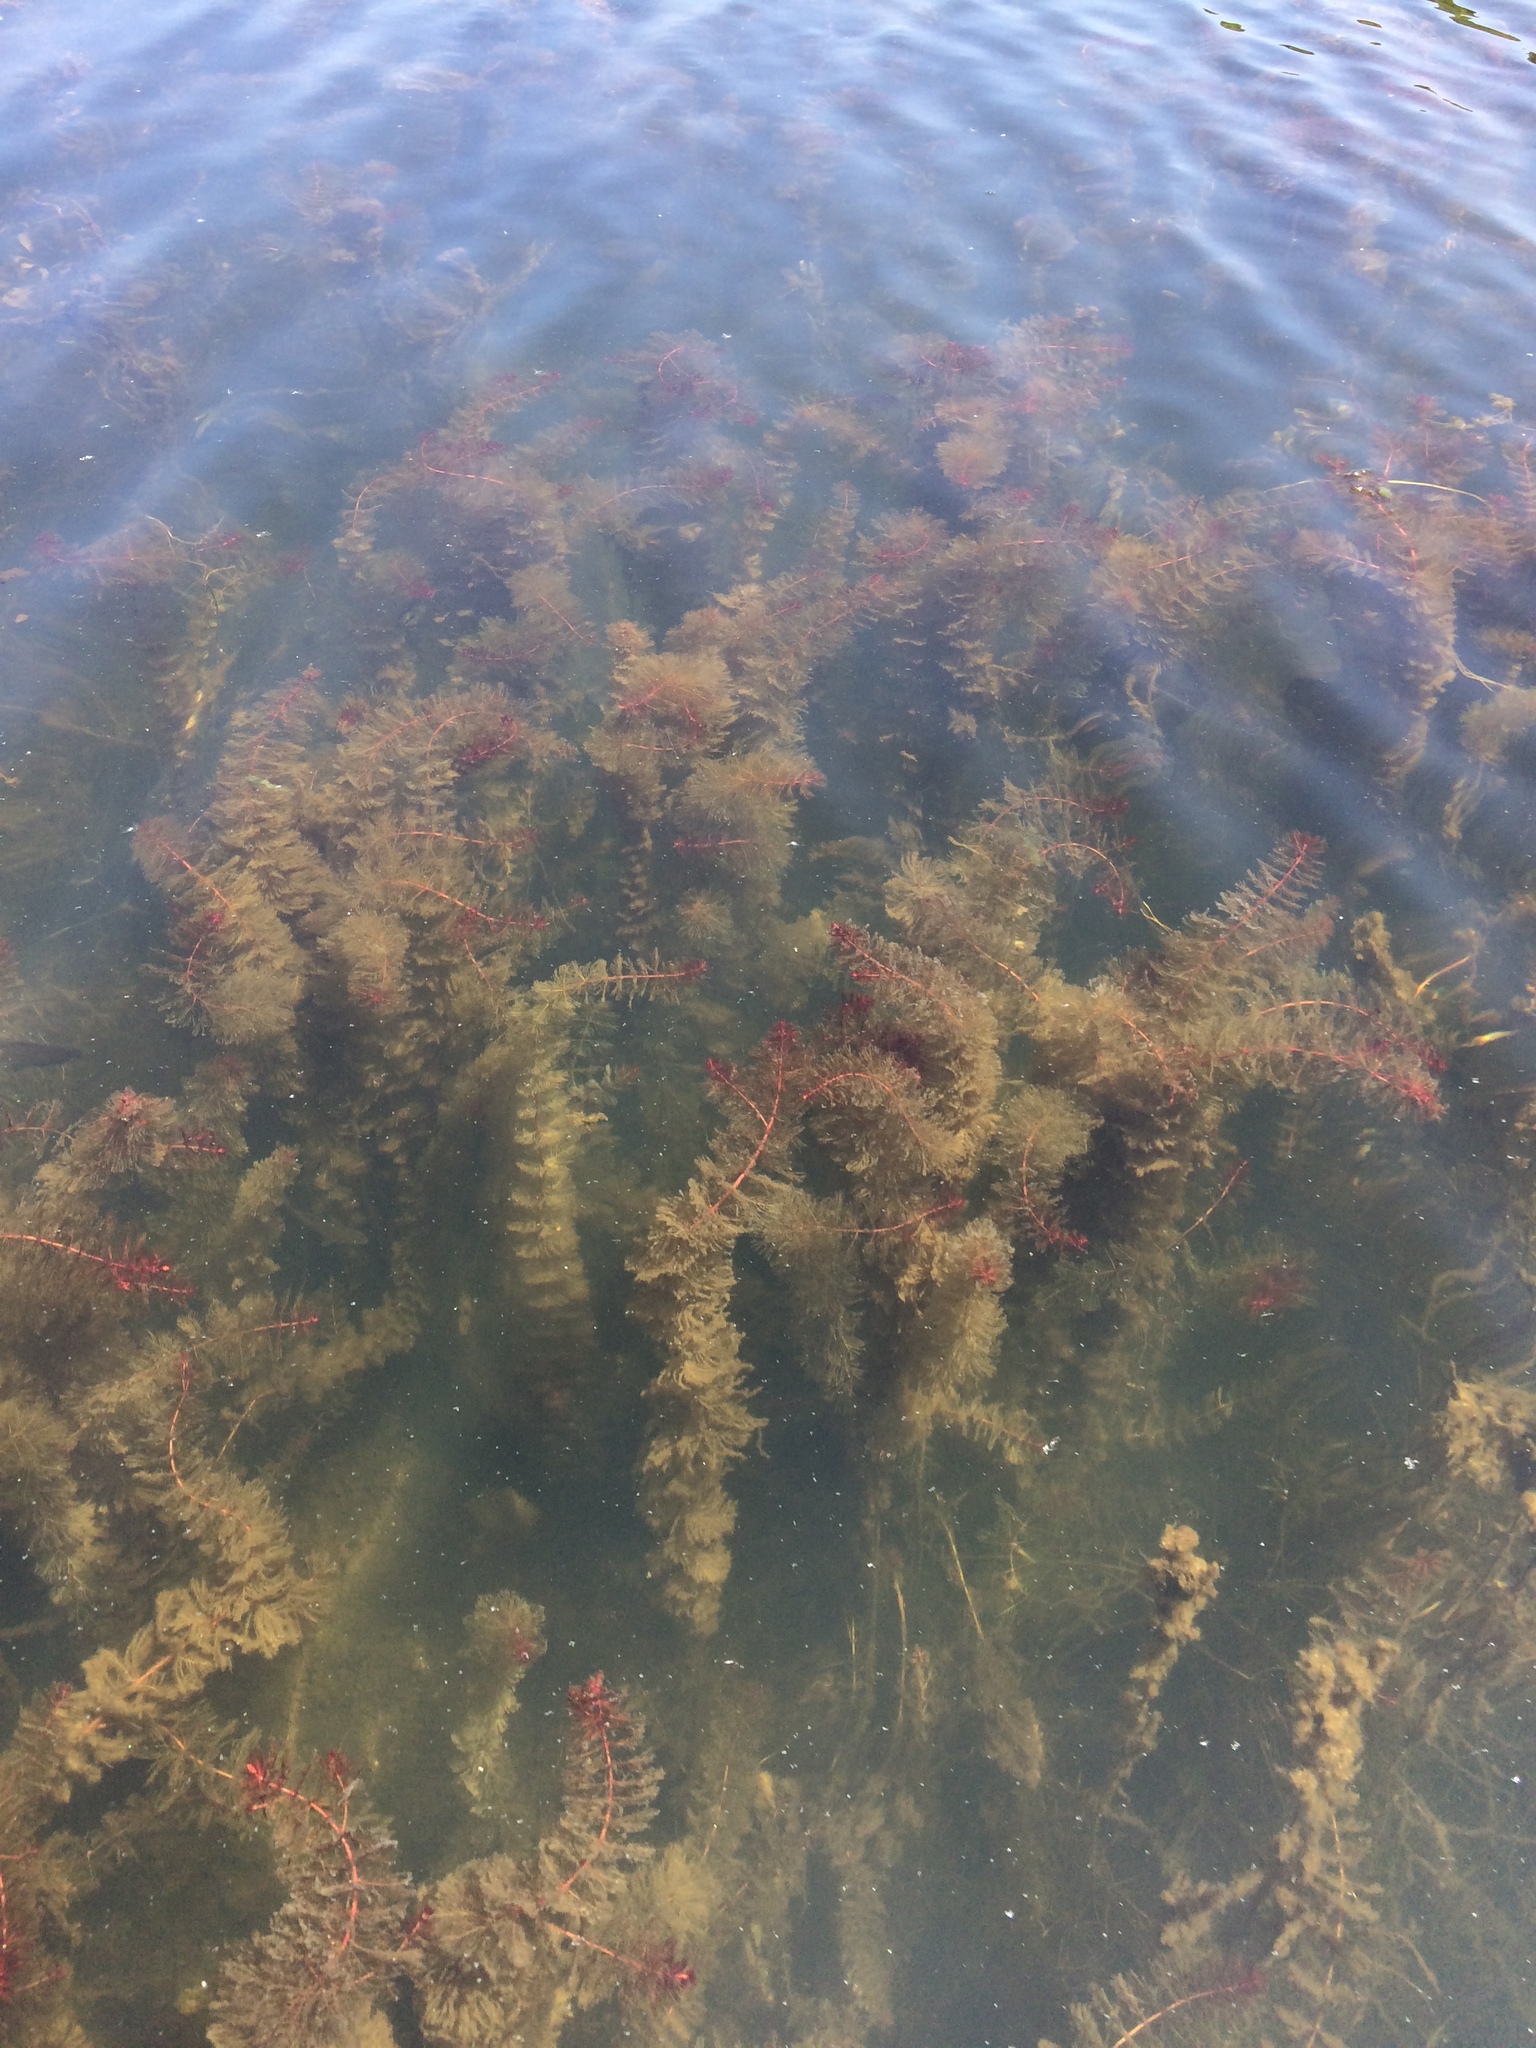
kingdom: Plantae
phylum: Tracheophyta
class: Magnoliopsida
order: Saxifragales
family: Haloragaceae
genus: Myriophyllum
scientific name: Myriophyllum spicatum
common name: Spiked water-milfoil
